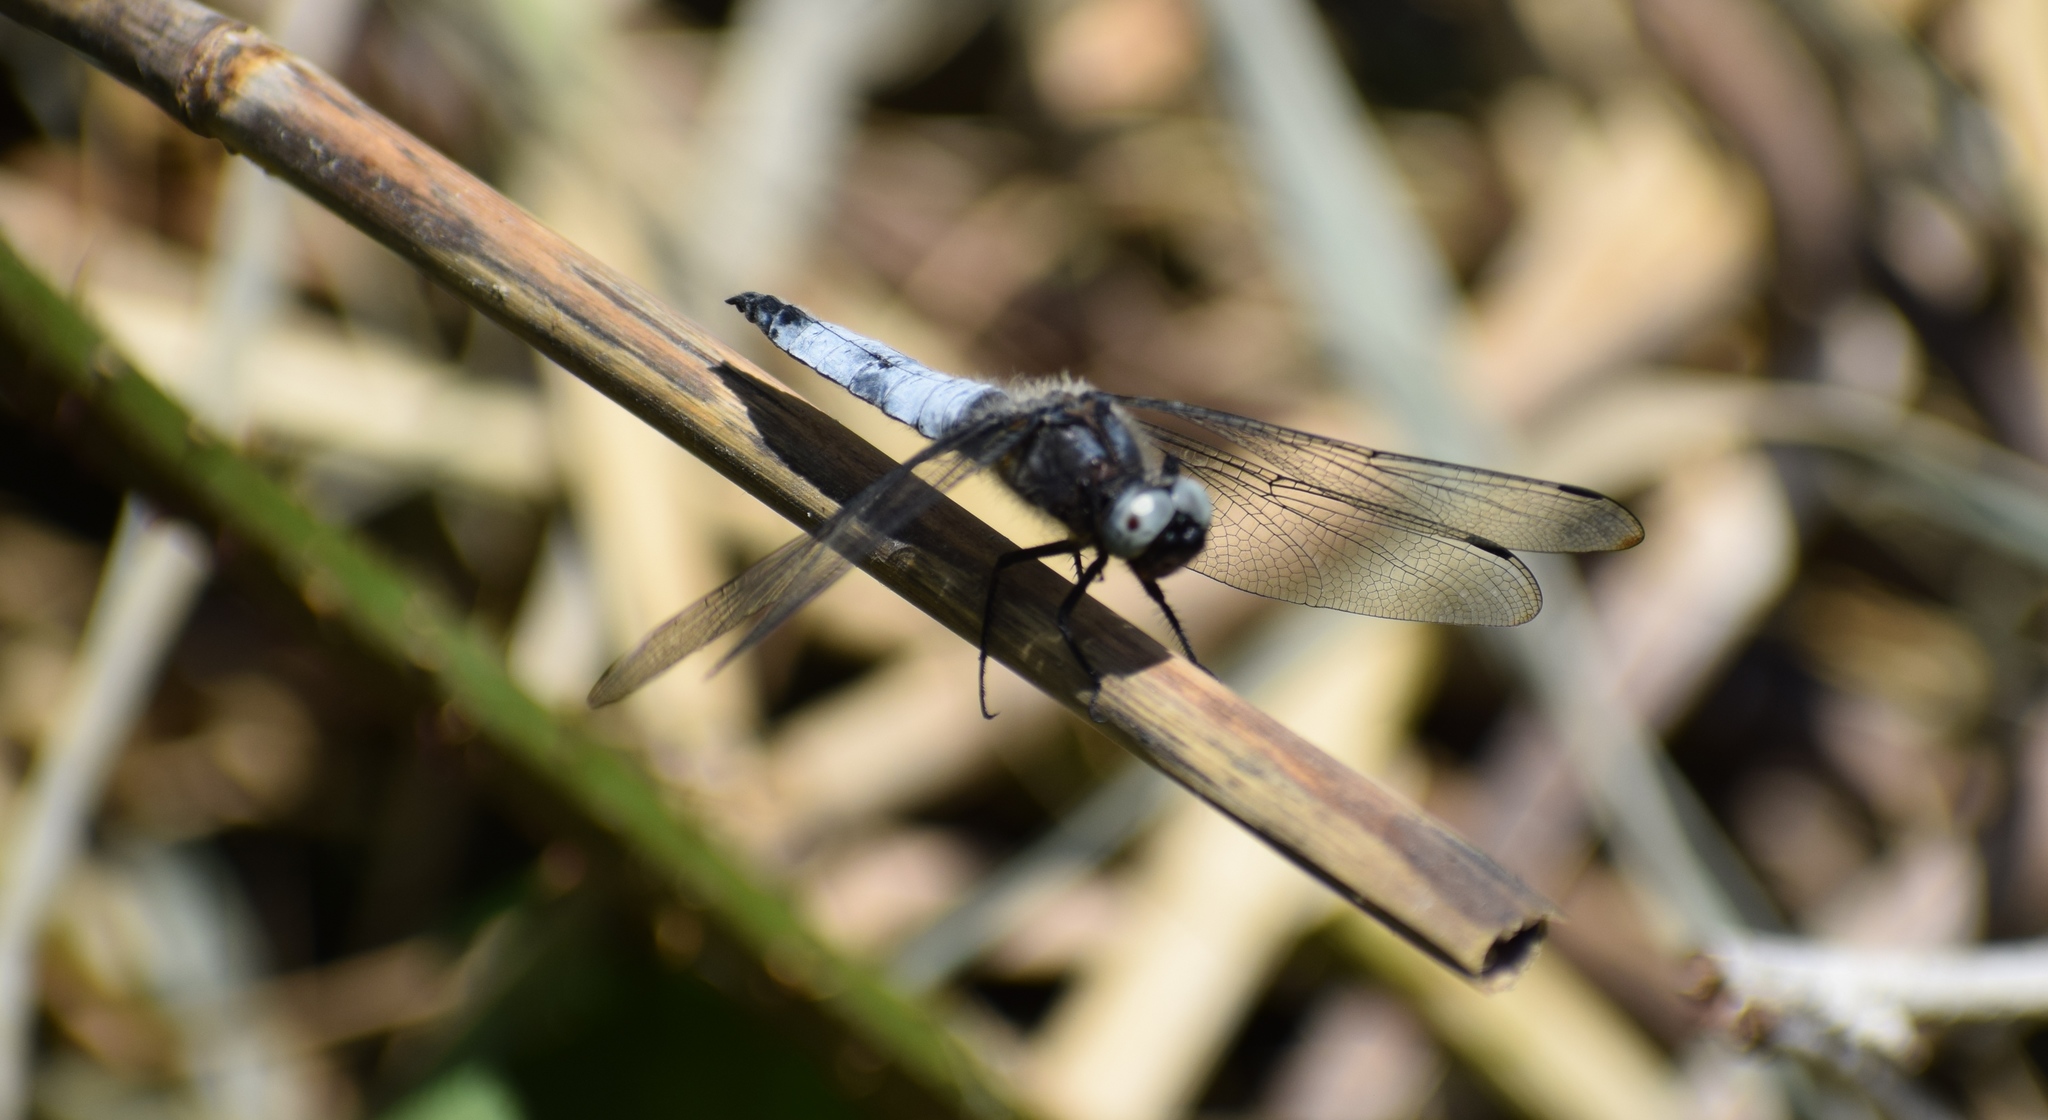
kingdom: Animalia
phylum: Arthropoda
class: Insecta
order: Odonata
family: Libellulidae
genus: Libellula
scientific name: Libellula fulva
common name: Blue chaser
